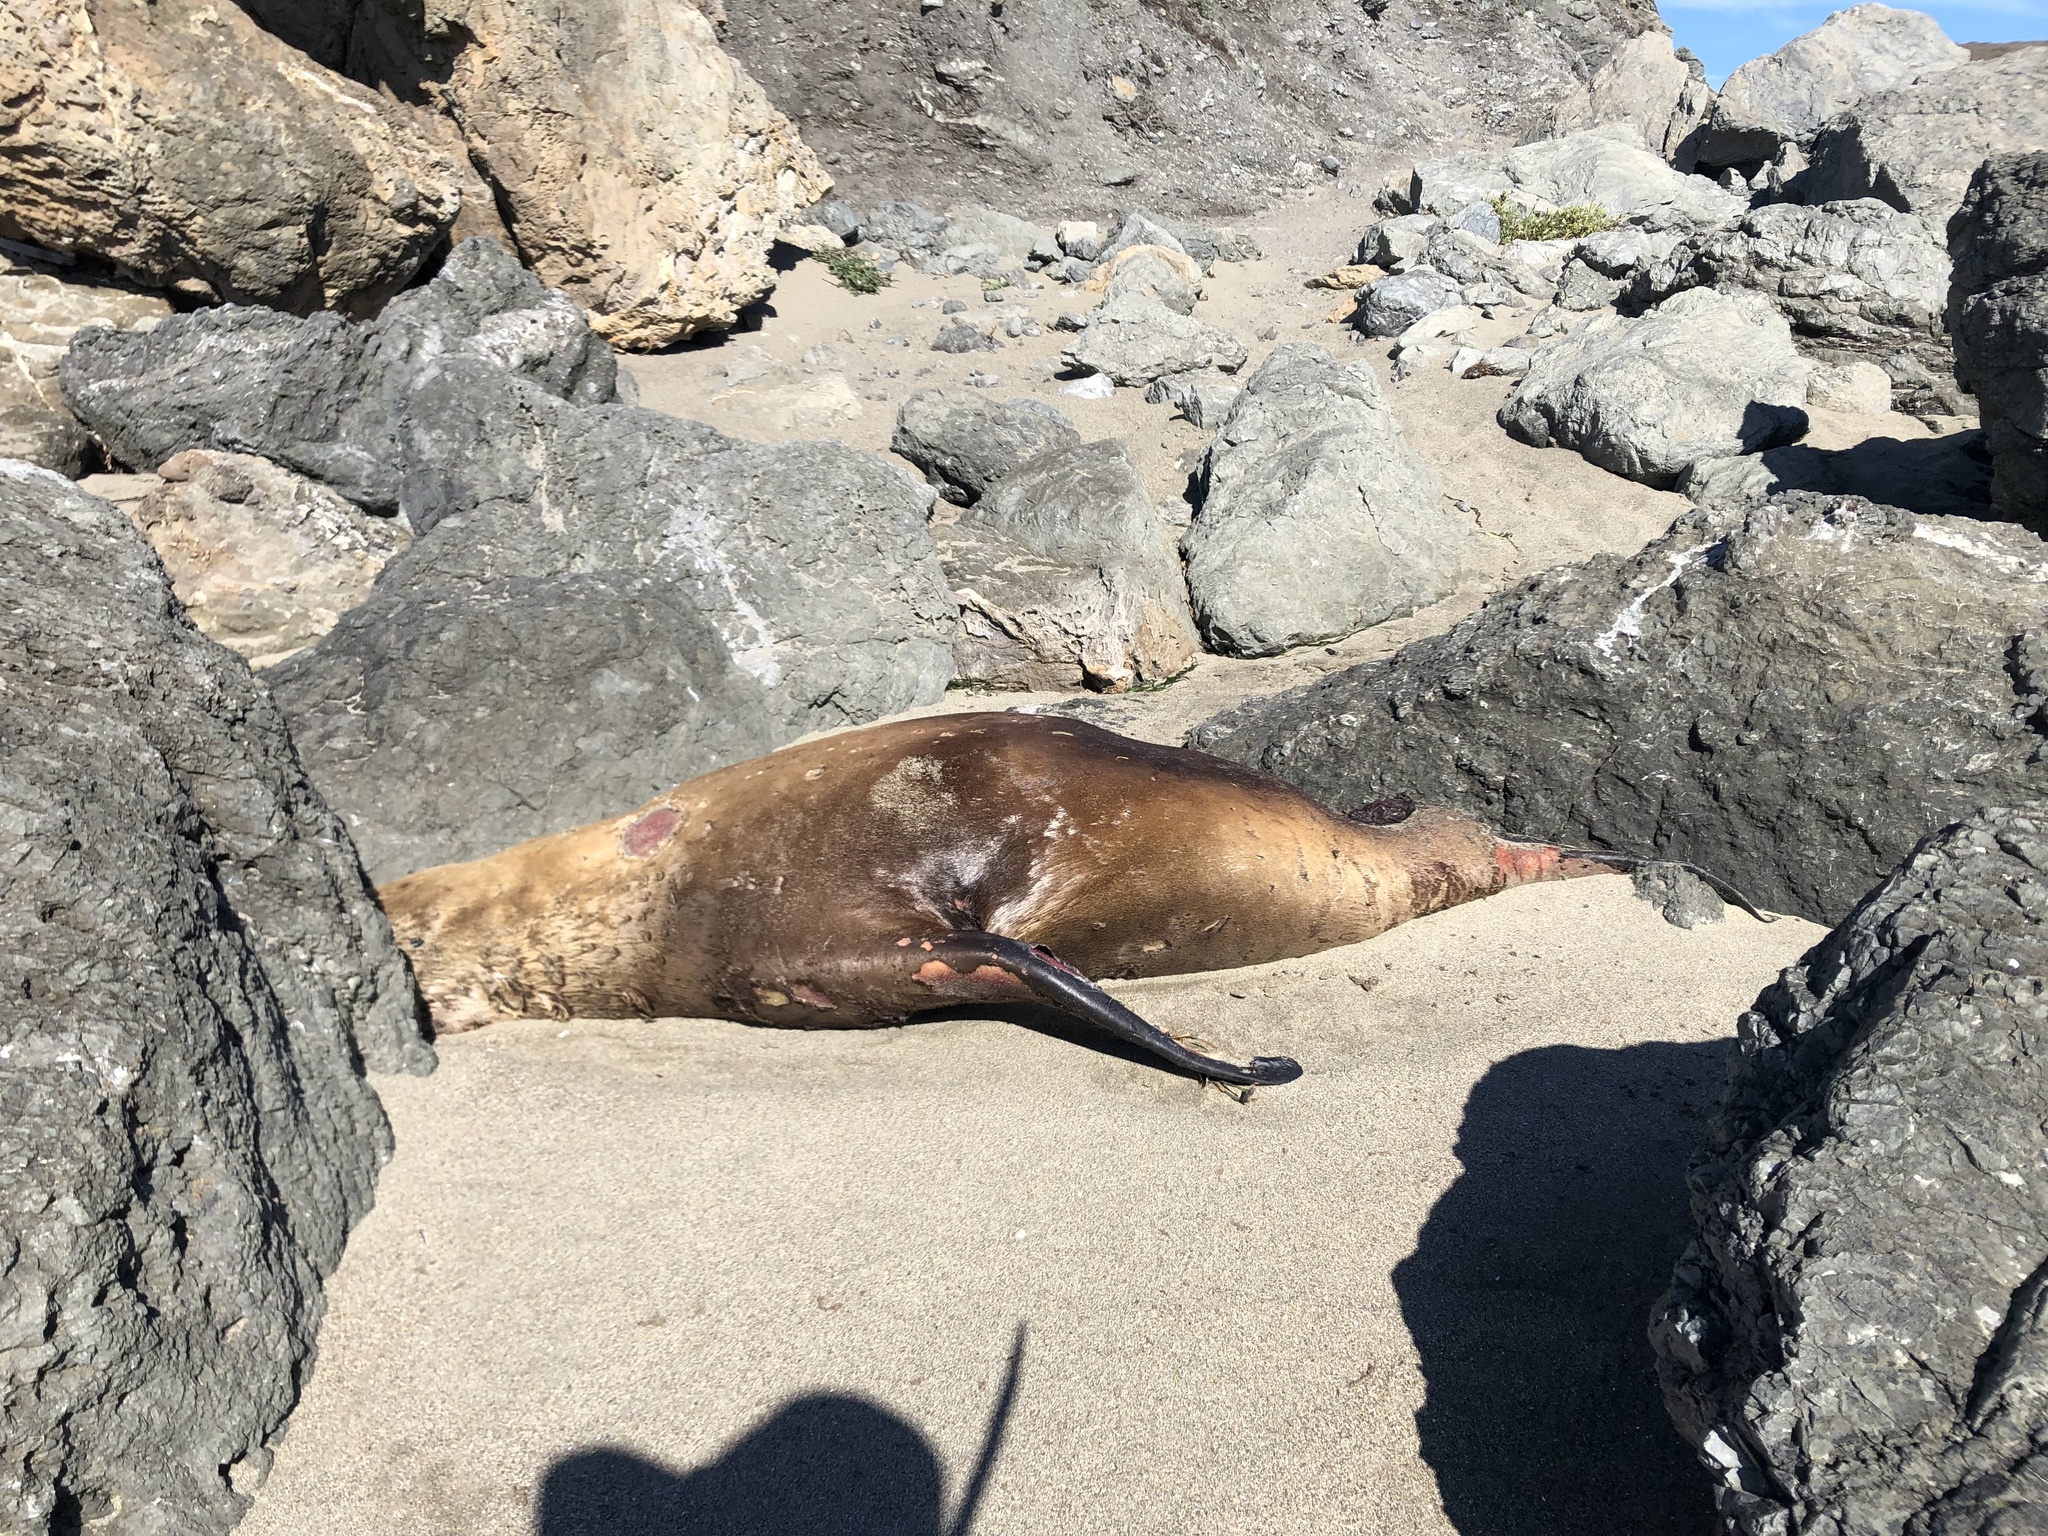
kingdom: Animalia
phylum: Chordata
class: Mammalia
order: Carnivora
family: Otariidae
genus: Zalophus
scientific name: Zalophus californianus
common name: California sea lion
